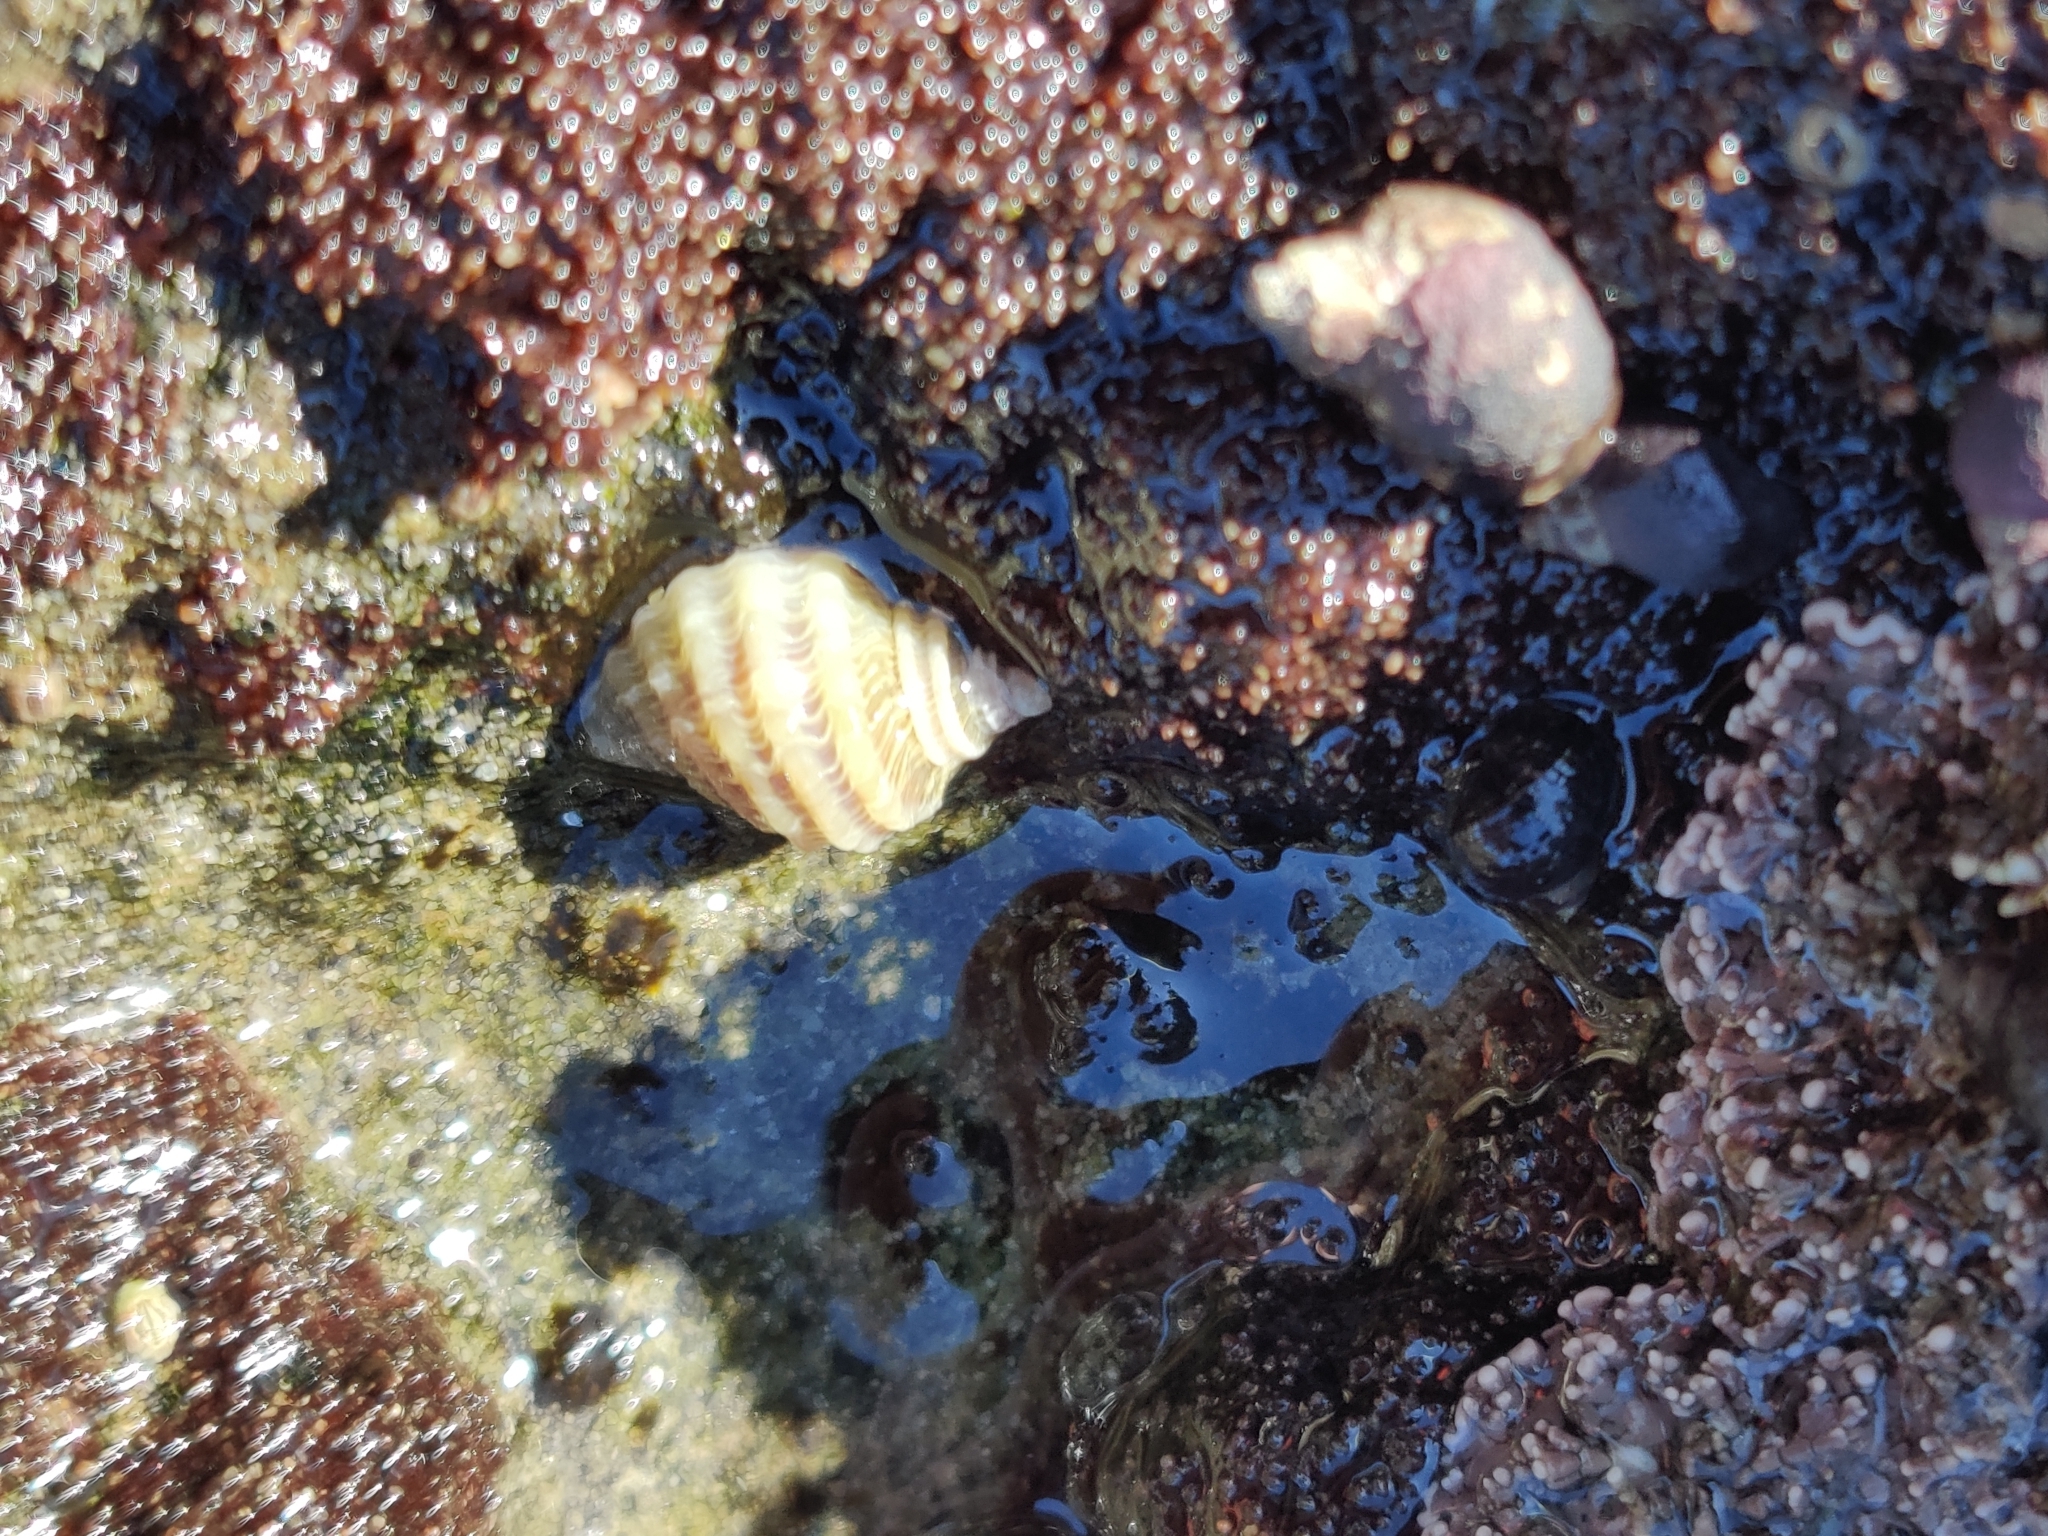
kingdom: Animalia
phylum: Mollusca
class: Gastropoda
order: Neogastropoda
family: Muricidae
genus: Nucella
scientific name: Nucella ostrina
